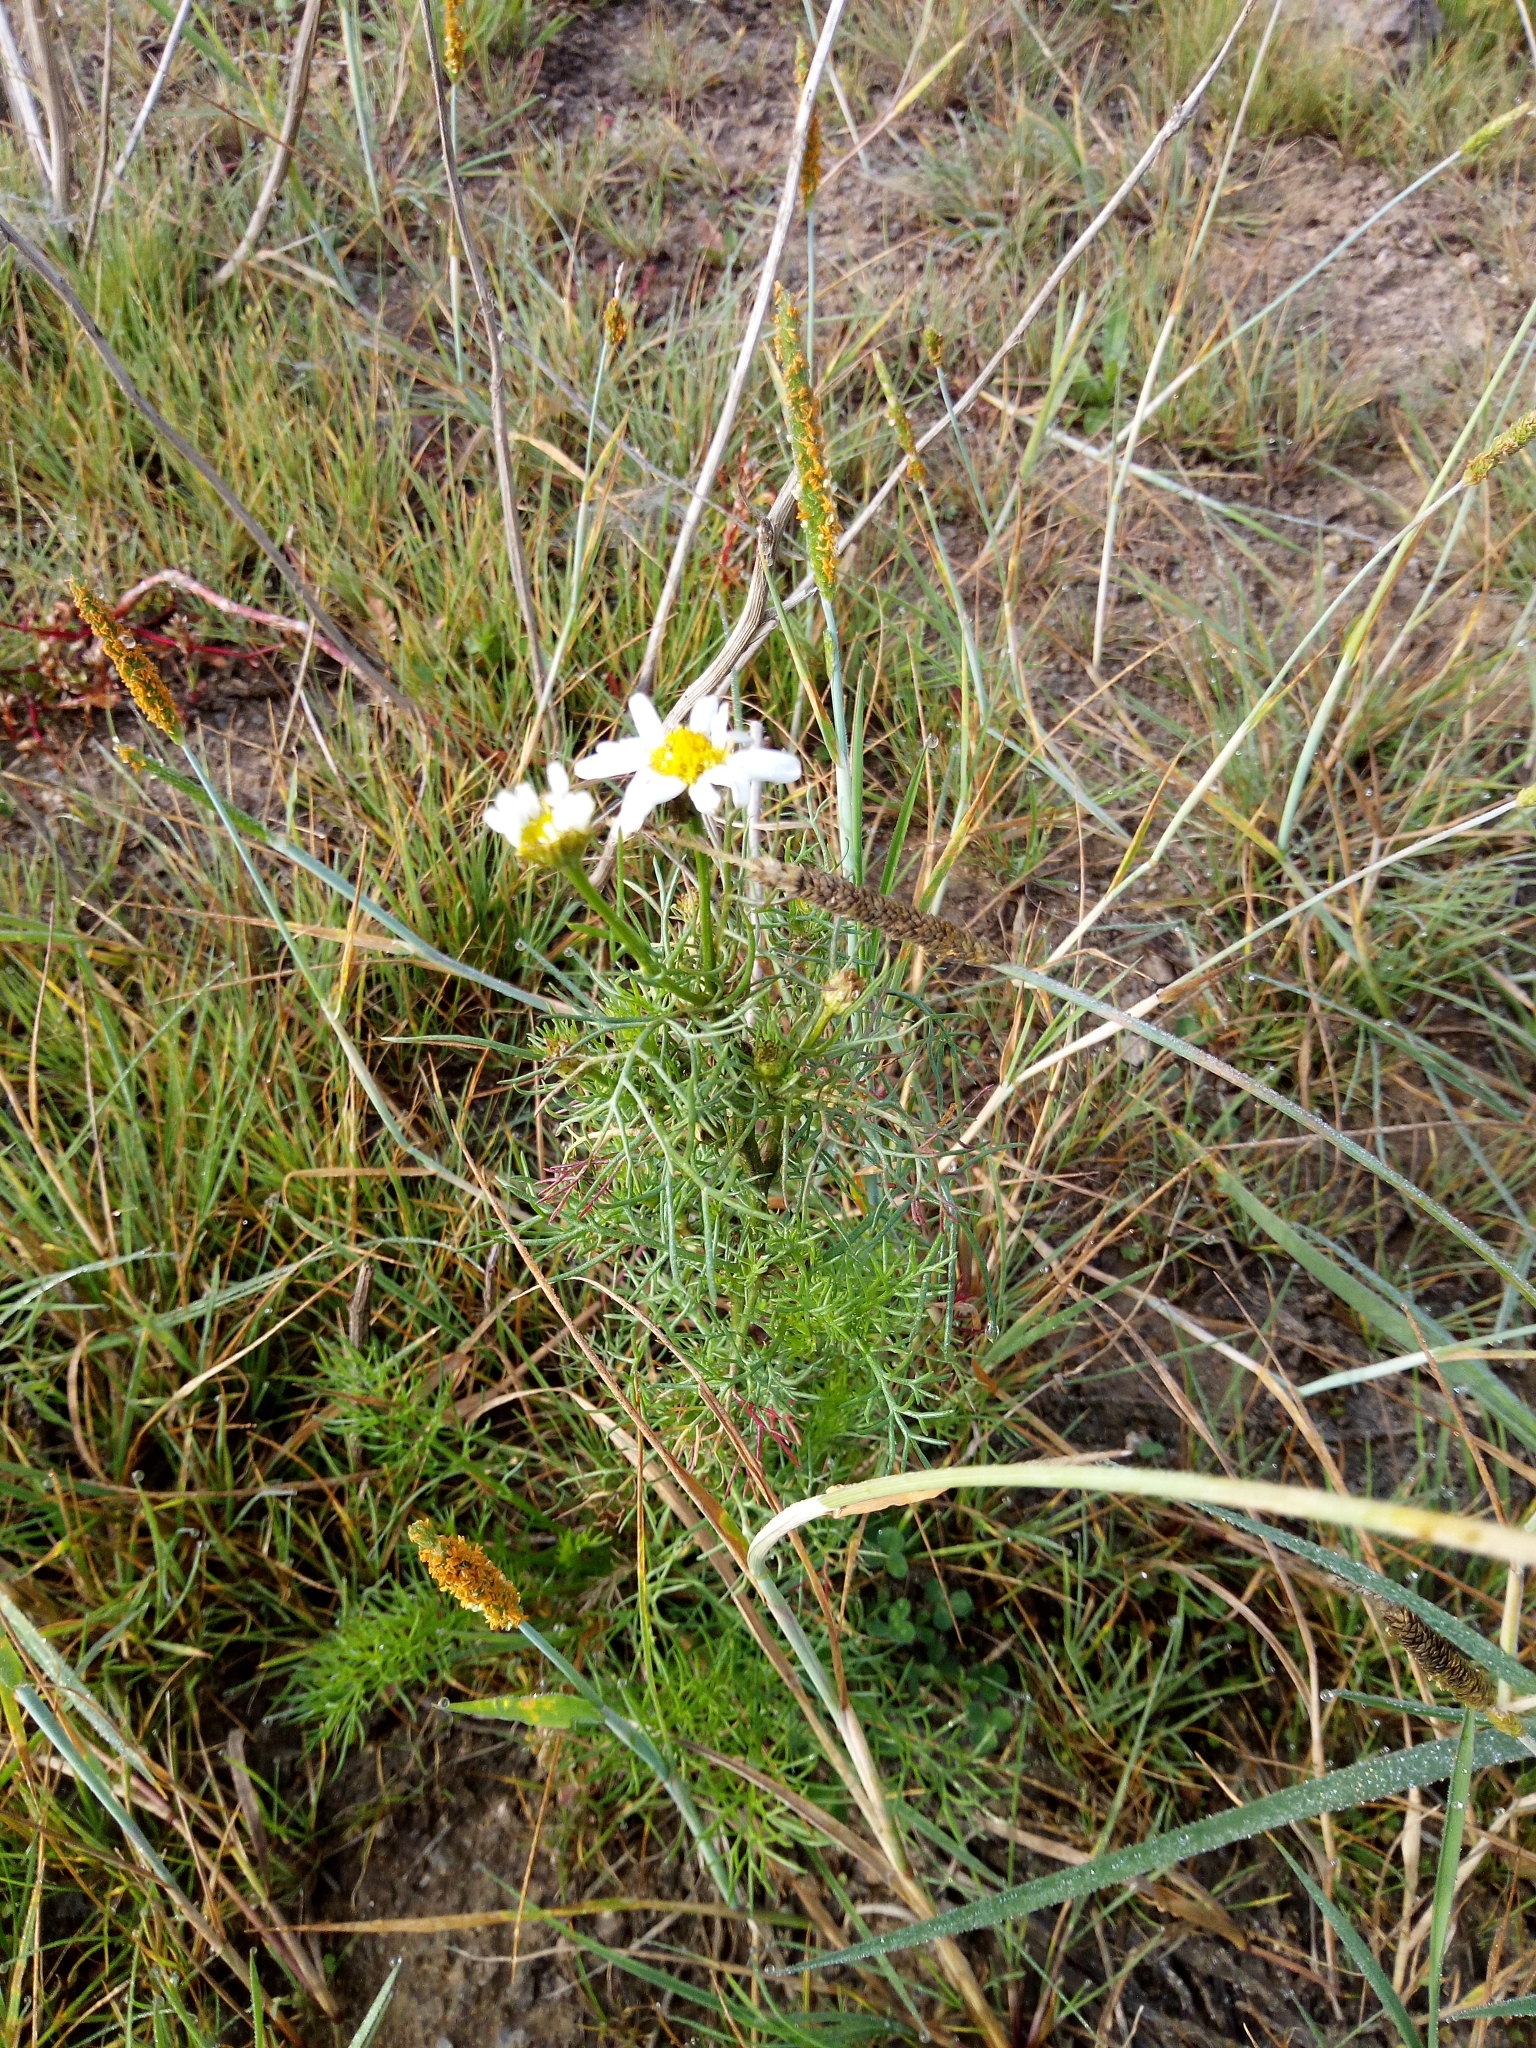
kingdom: Plantae
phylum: Tracheophyta
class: Magnoliopsida
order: Asterales
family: Asteraceae
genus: Tripleurospermum
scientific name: Tripleurospermum inodorum
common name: Scentless mayweed
